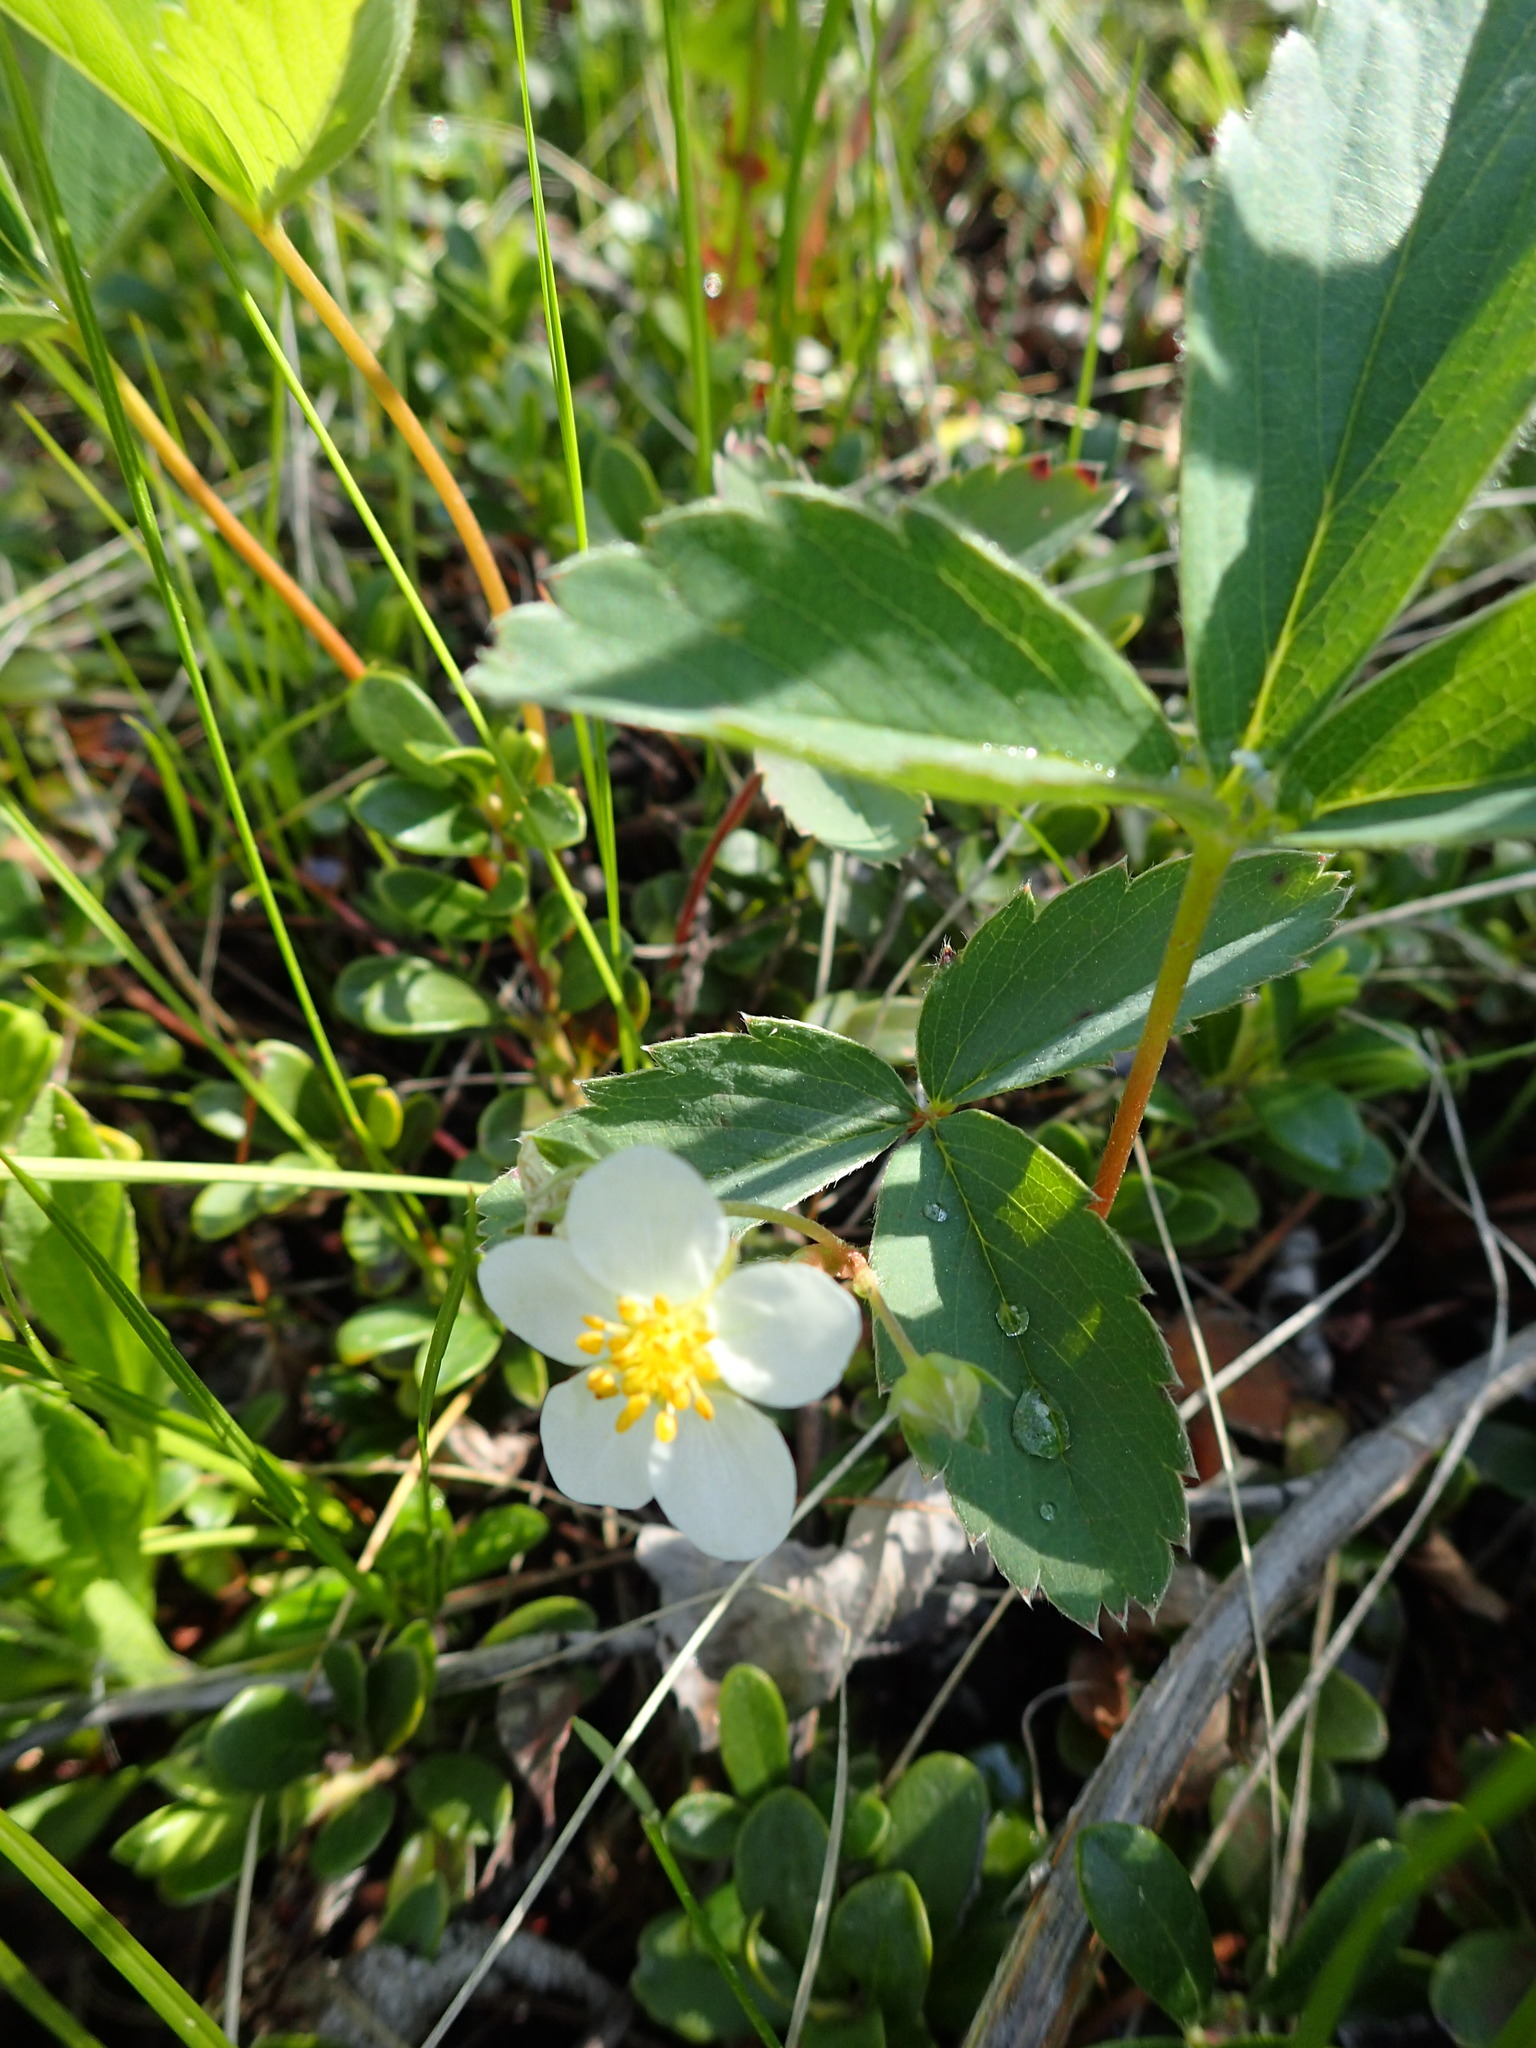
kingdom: Plantae
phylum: Tracheophyta
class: Magnoliopsida
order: Rosales
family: Rosaceae
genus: Fragaria
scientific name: Fragaria virginiana
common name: Thickleaved wild strawberry
